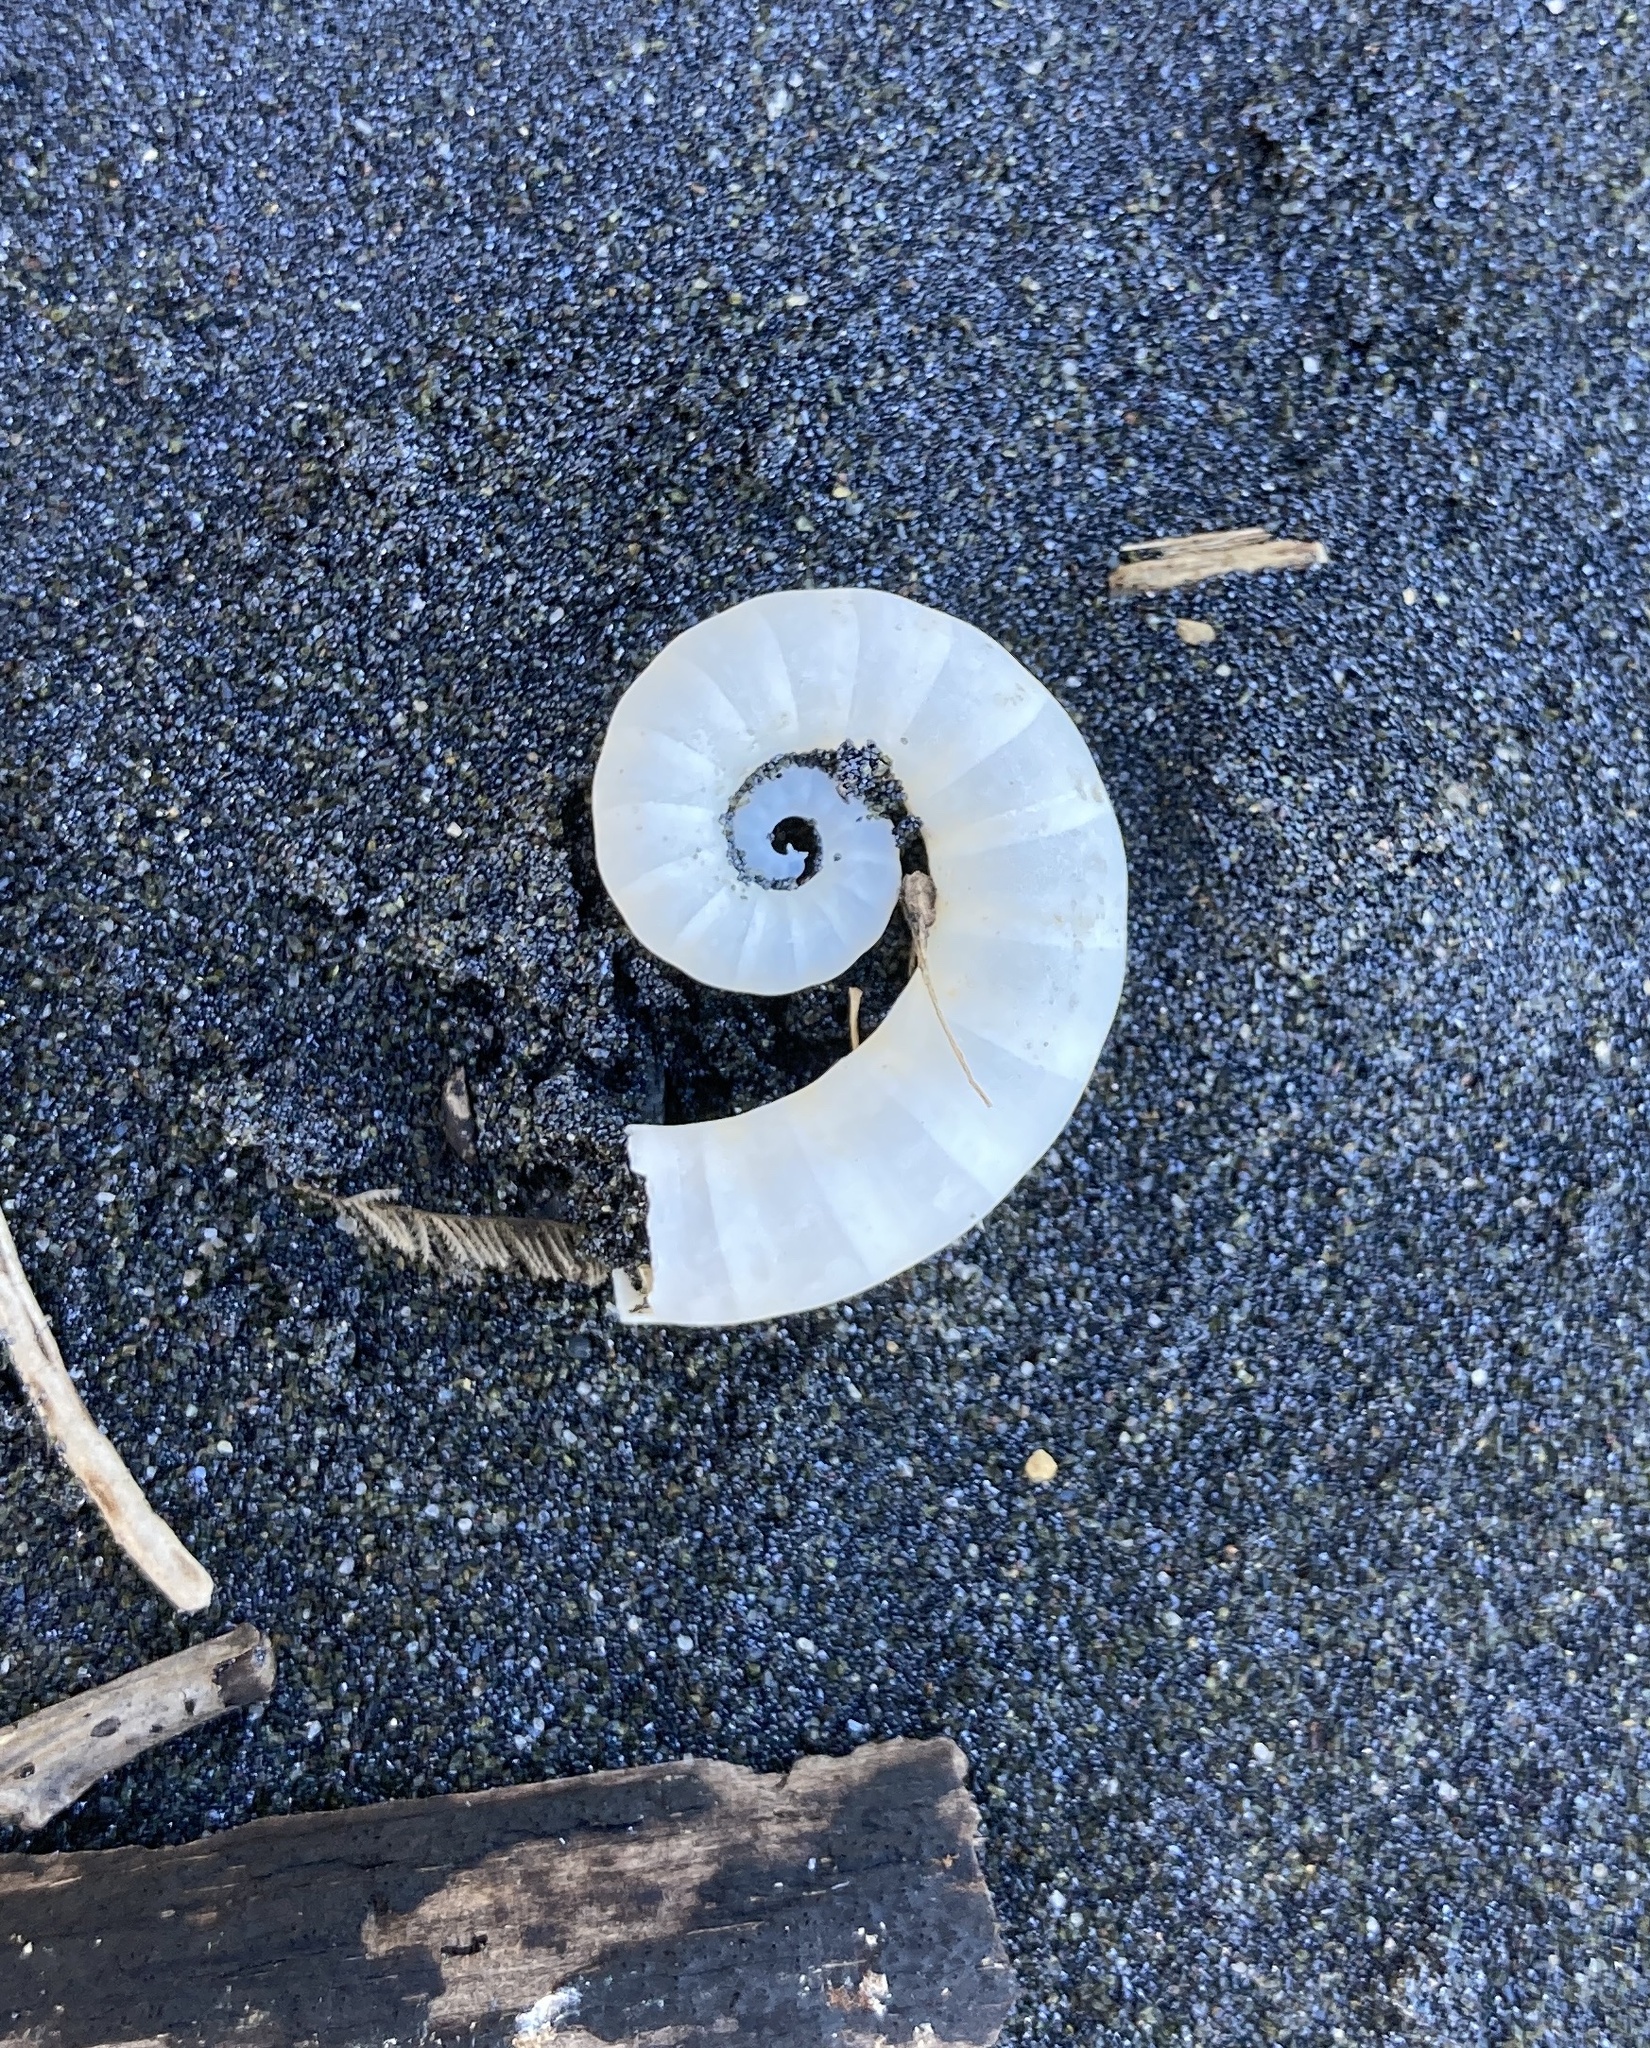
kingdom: Animalia
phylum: Mollusca
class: Cephalopoda
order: Spirulida
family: Spirulidae
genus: Spirula
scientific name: Spirula spirula
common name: Ram's horn squid
